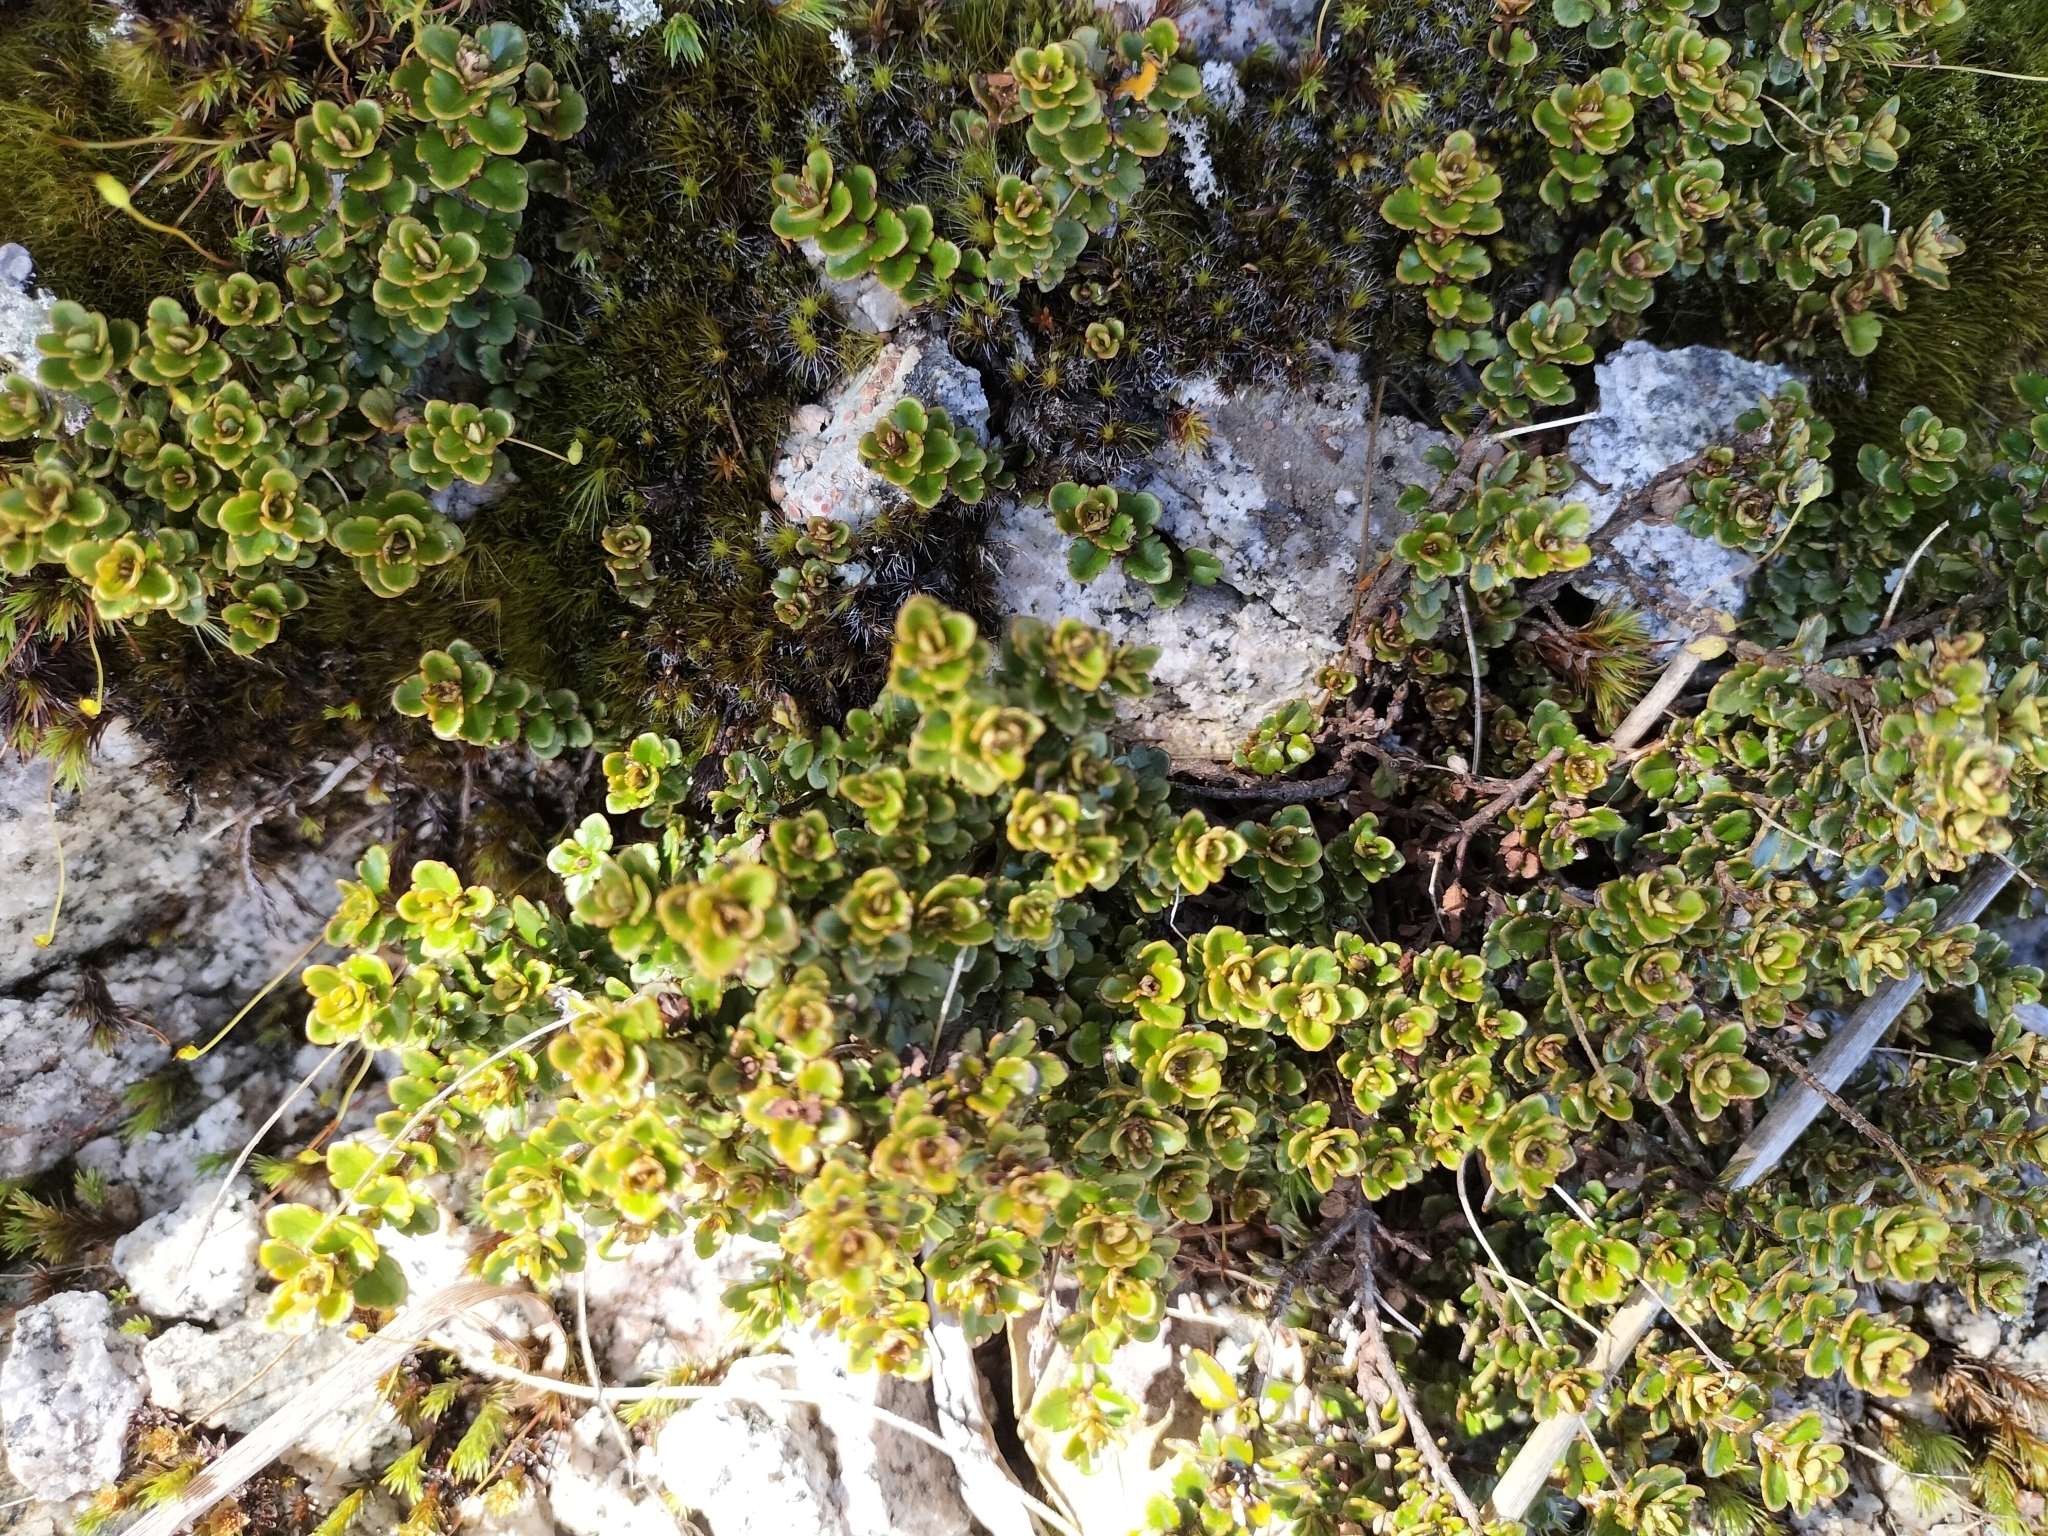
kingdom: Plantae
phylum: Tracheophyta
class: Magnoliopsida
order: Lamiales
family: Plantaginaceae
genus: Veronica
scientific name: Veronica lyallii
